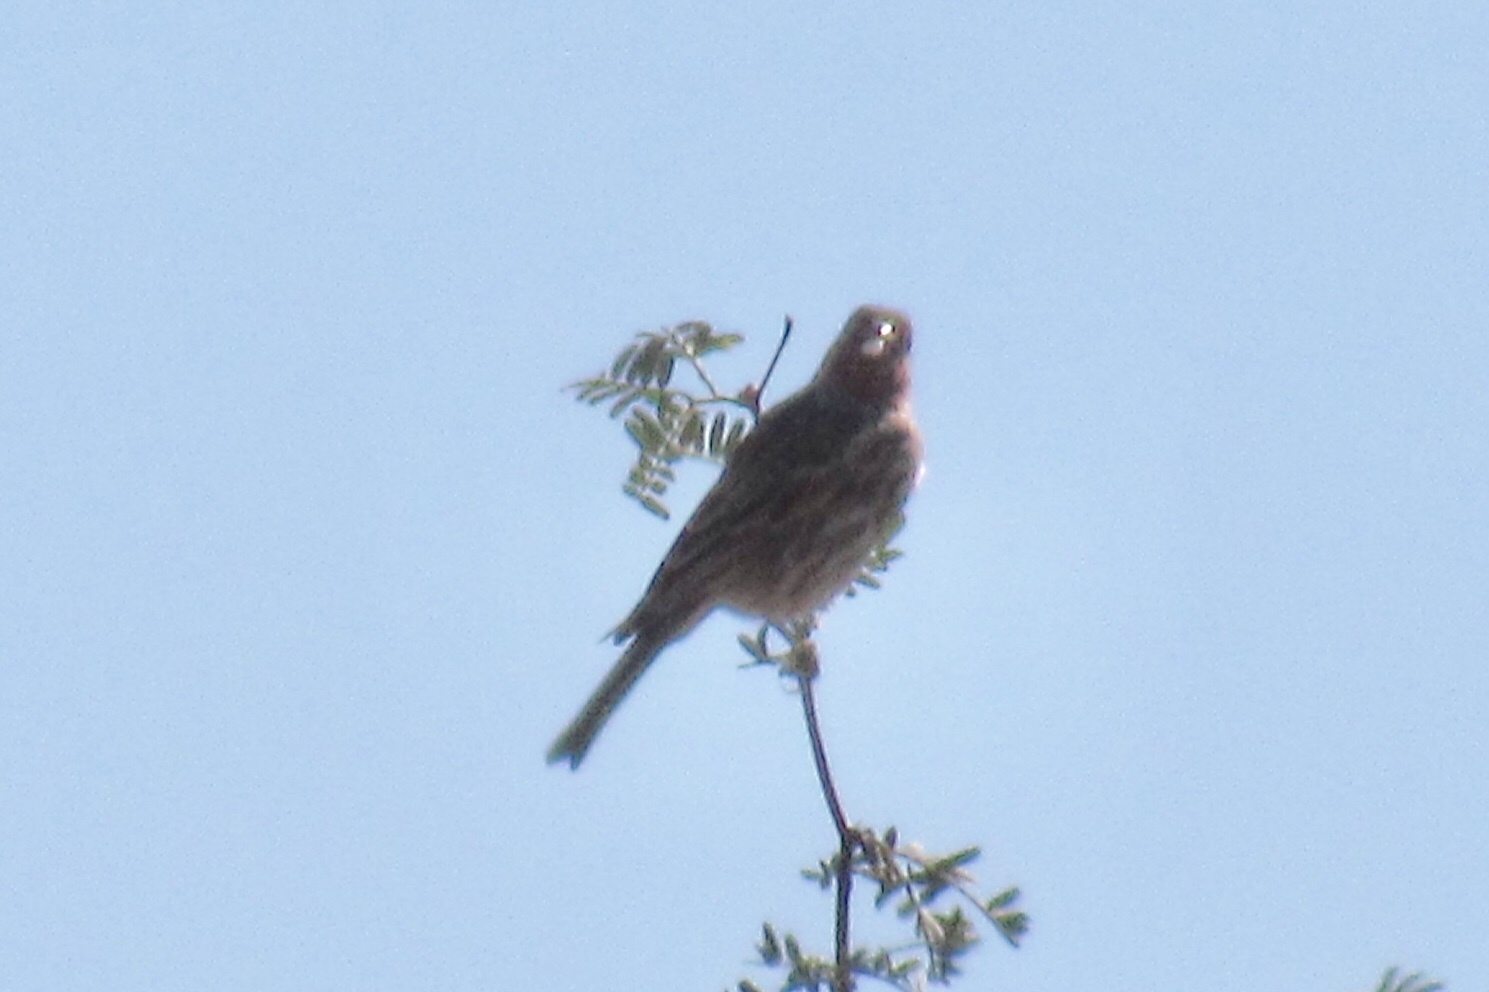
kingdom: Animalia
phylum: Chordata
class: Aves
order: Passeriformes
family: Fringillidae
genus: Haemorhous
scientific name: Haemorhous mexicanus
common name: House finch
